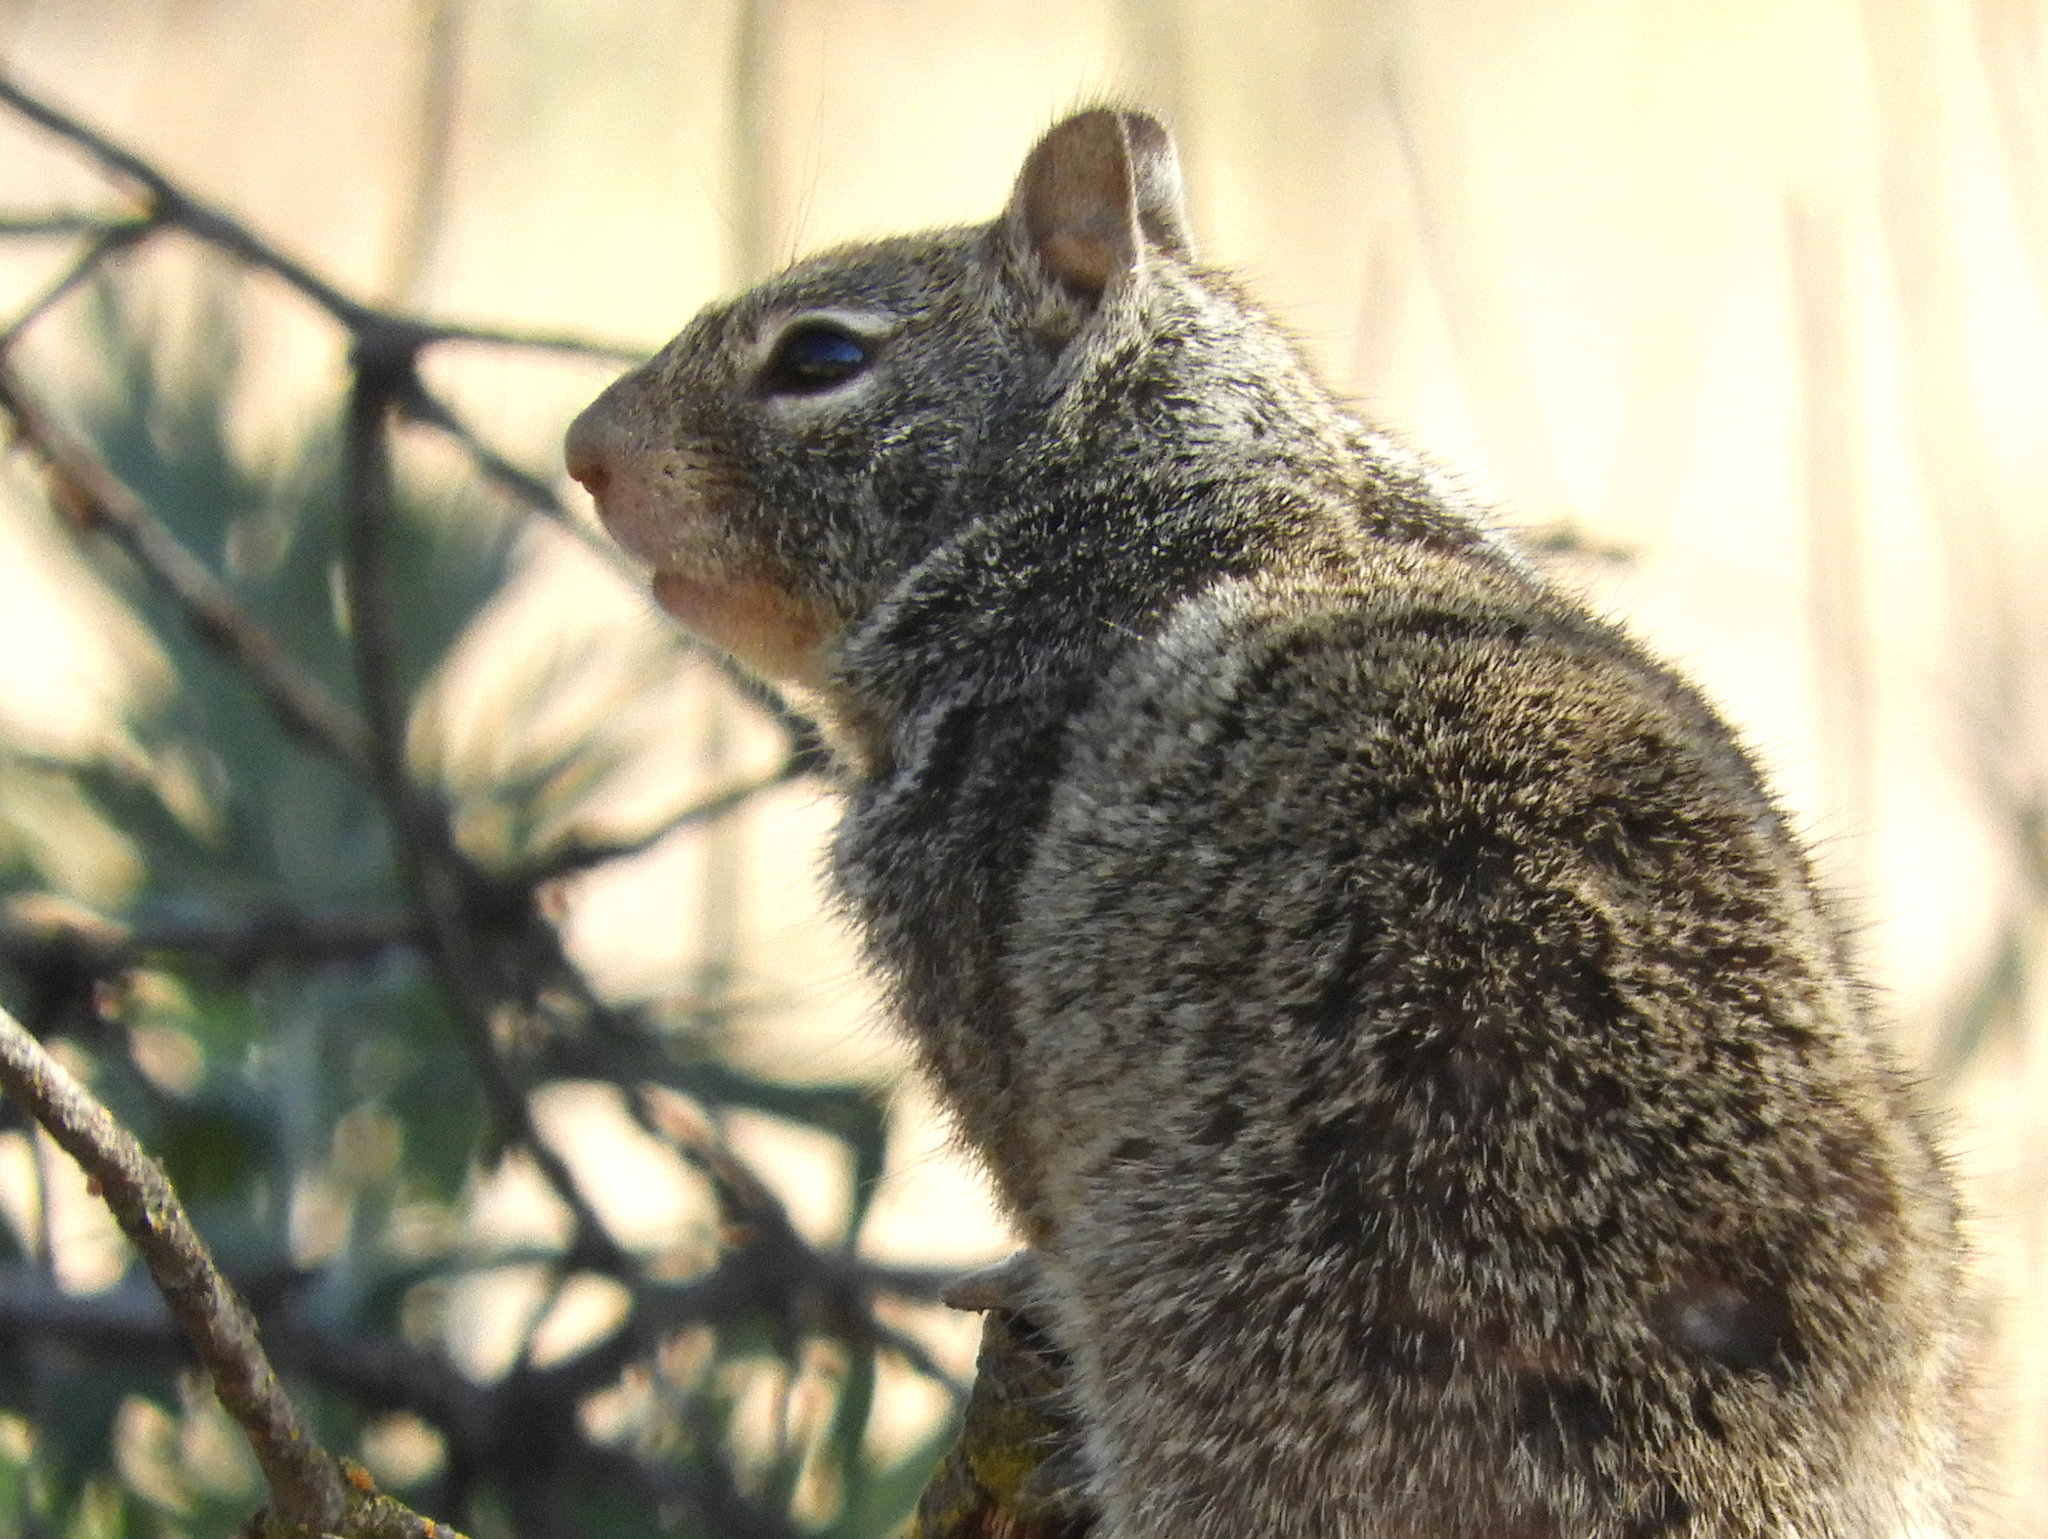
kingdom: Animalia
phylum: Chordata
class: Mammalia
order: Rodentia
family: Sciuridae
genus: Otospermophilus
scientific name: Otospermophilus beecheyi
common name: California ground squirrel
